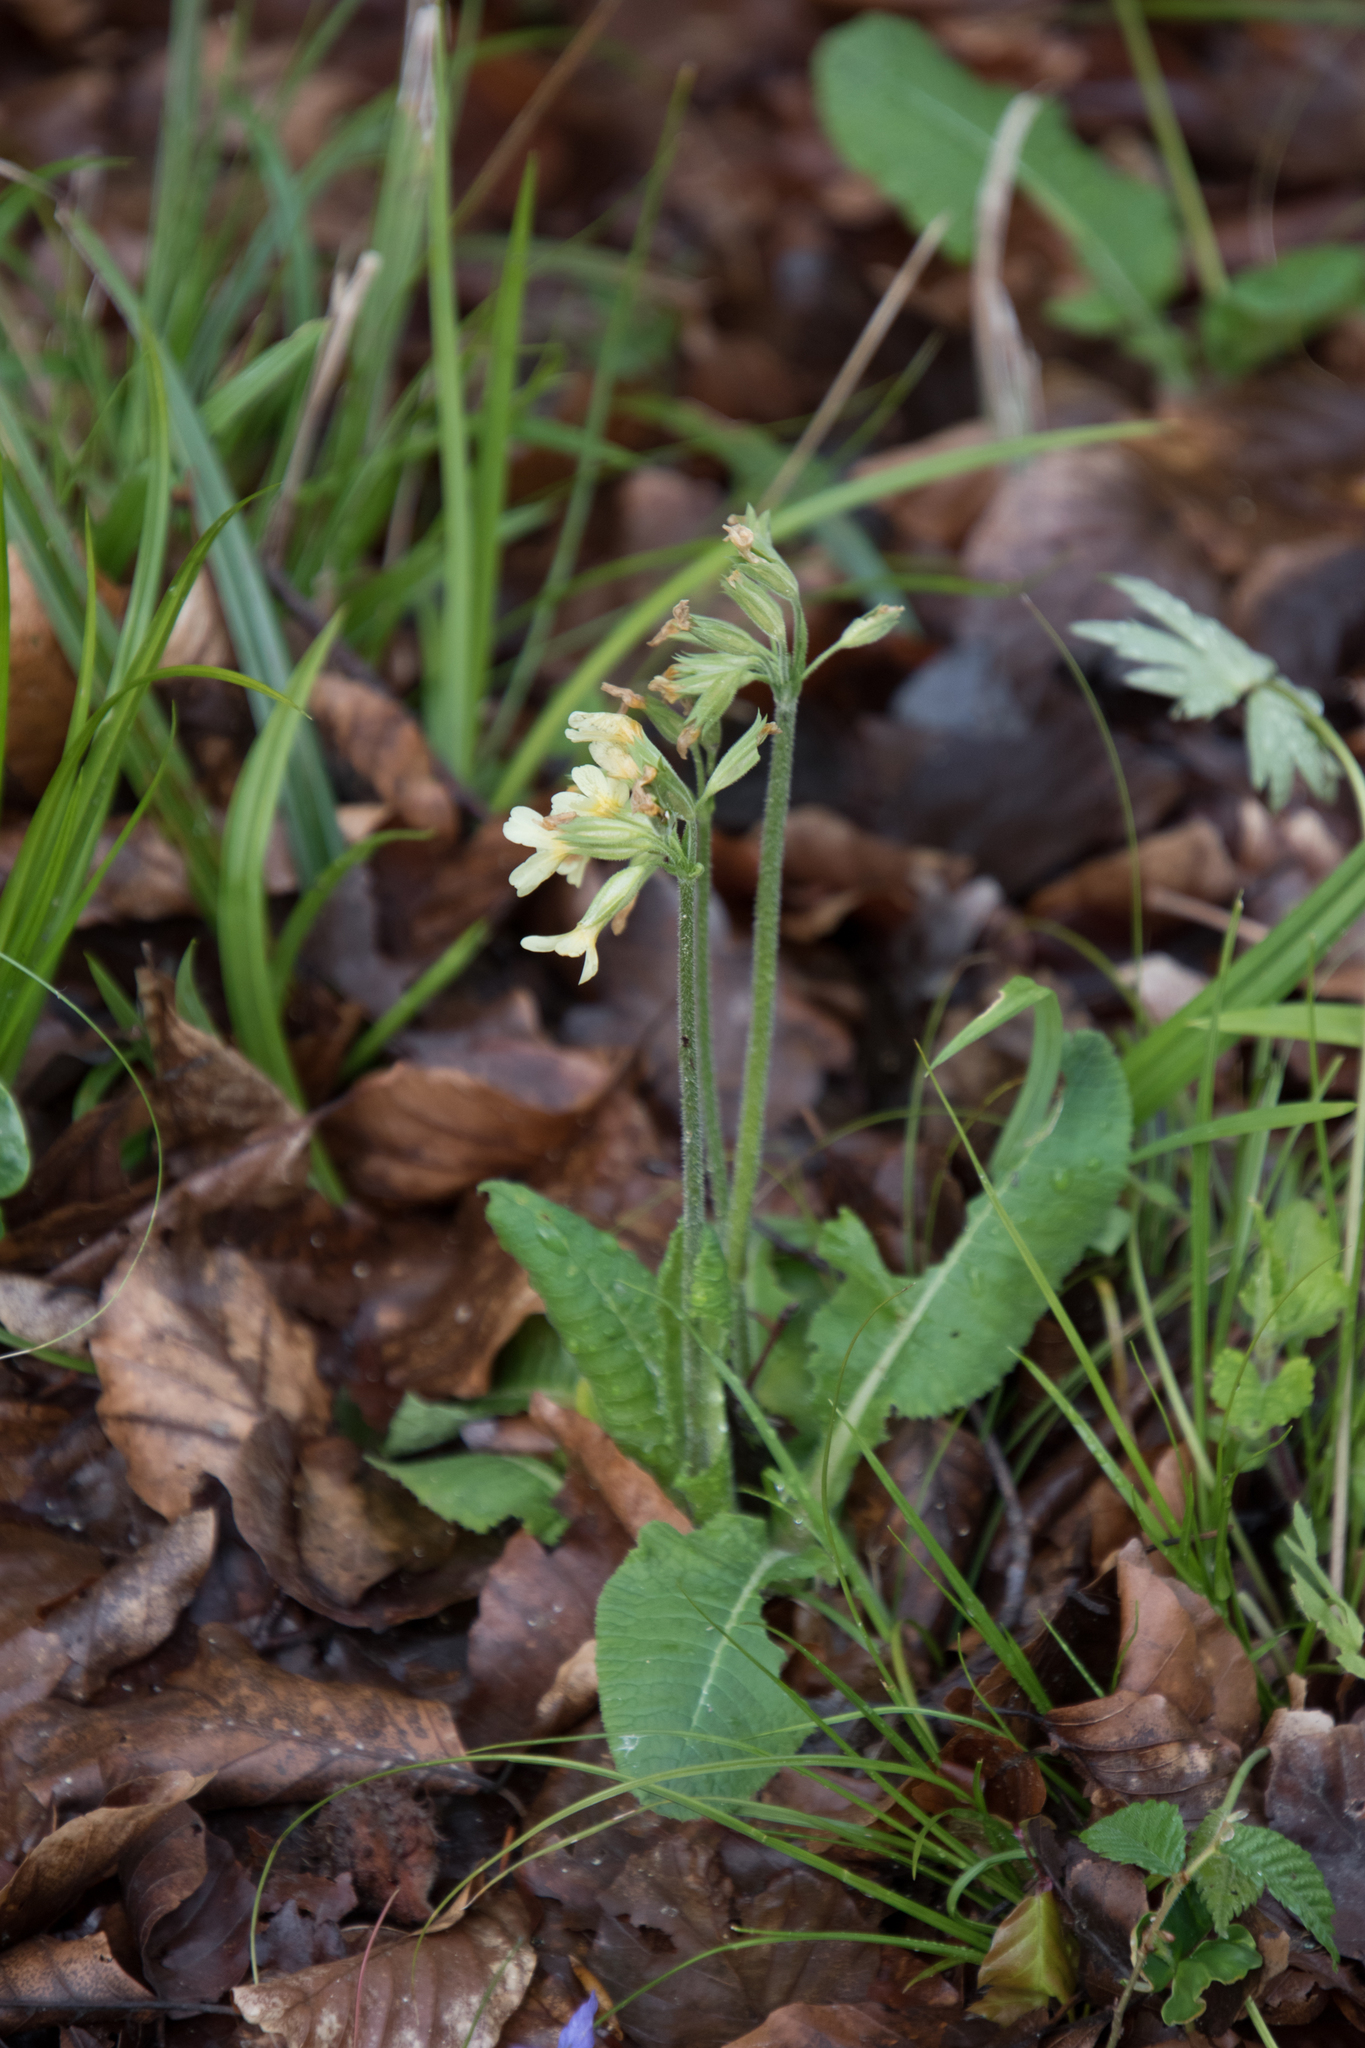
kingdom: Plantae
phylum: Tracheophyta
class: Magnoliopsida
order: Ericales
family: Primulaceae
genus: Primula
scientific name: Primula elatior
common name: Oxlip
